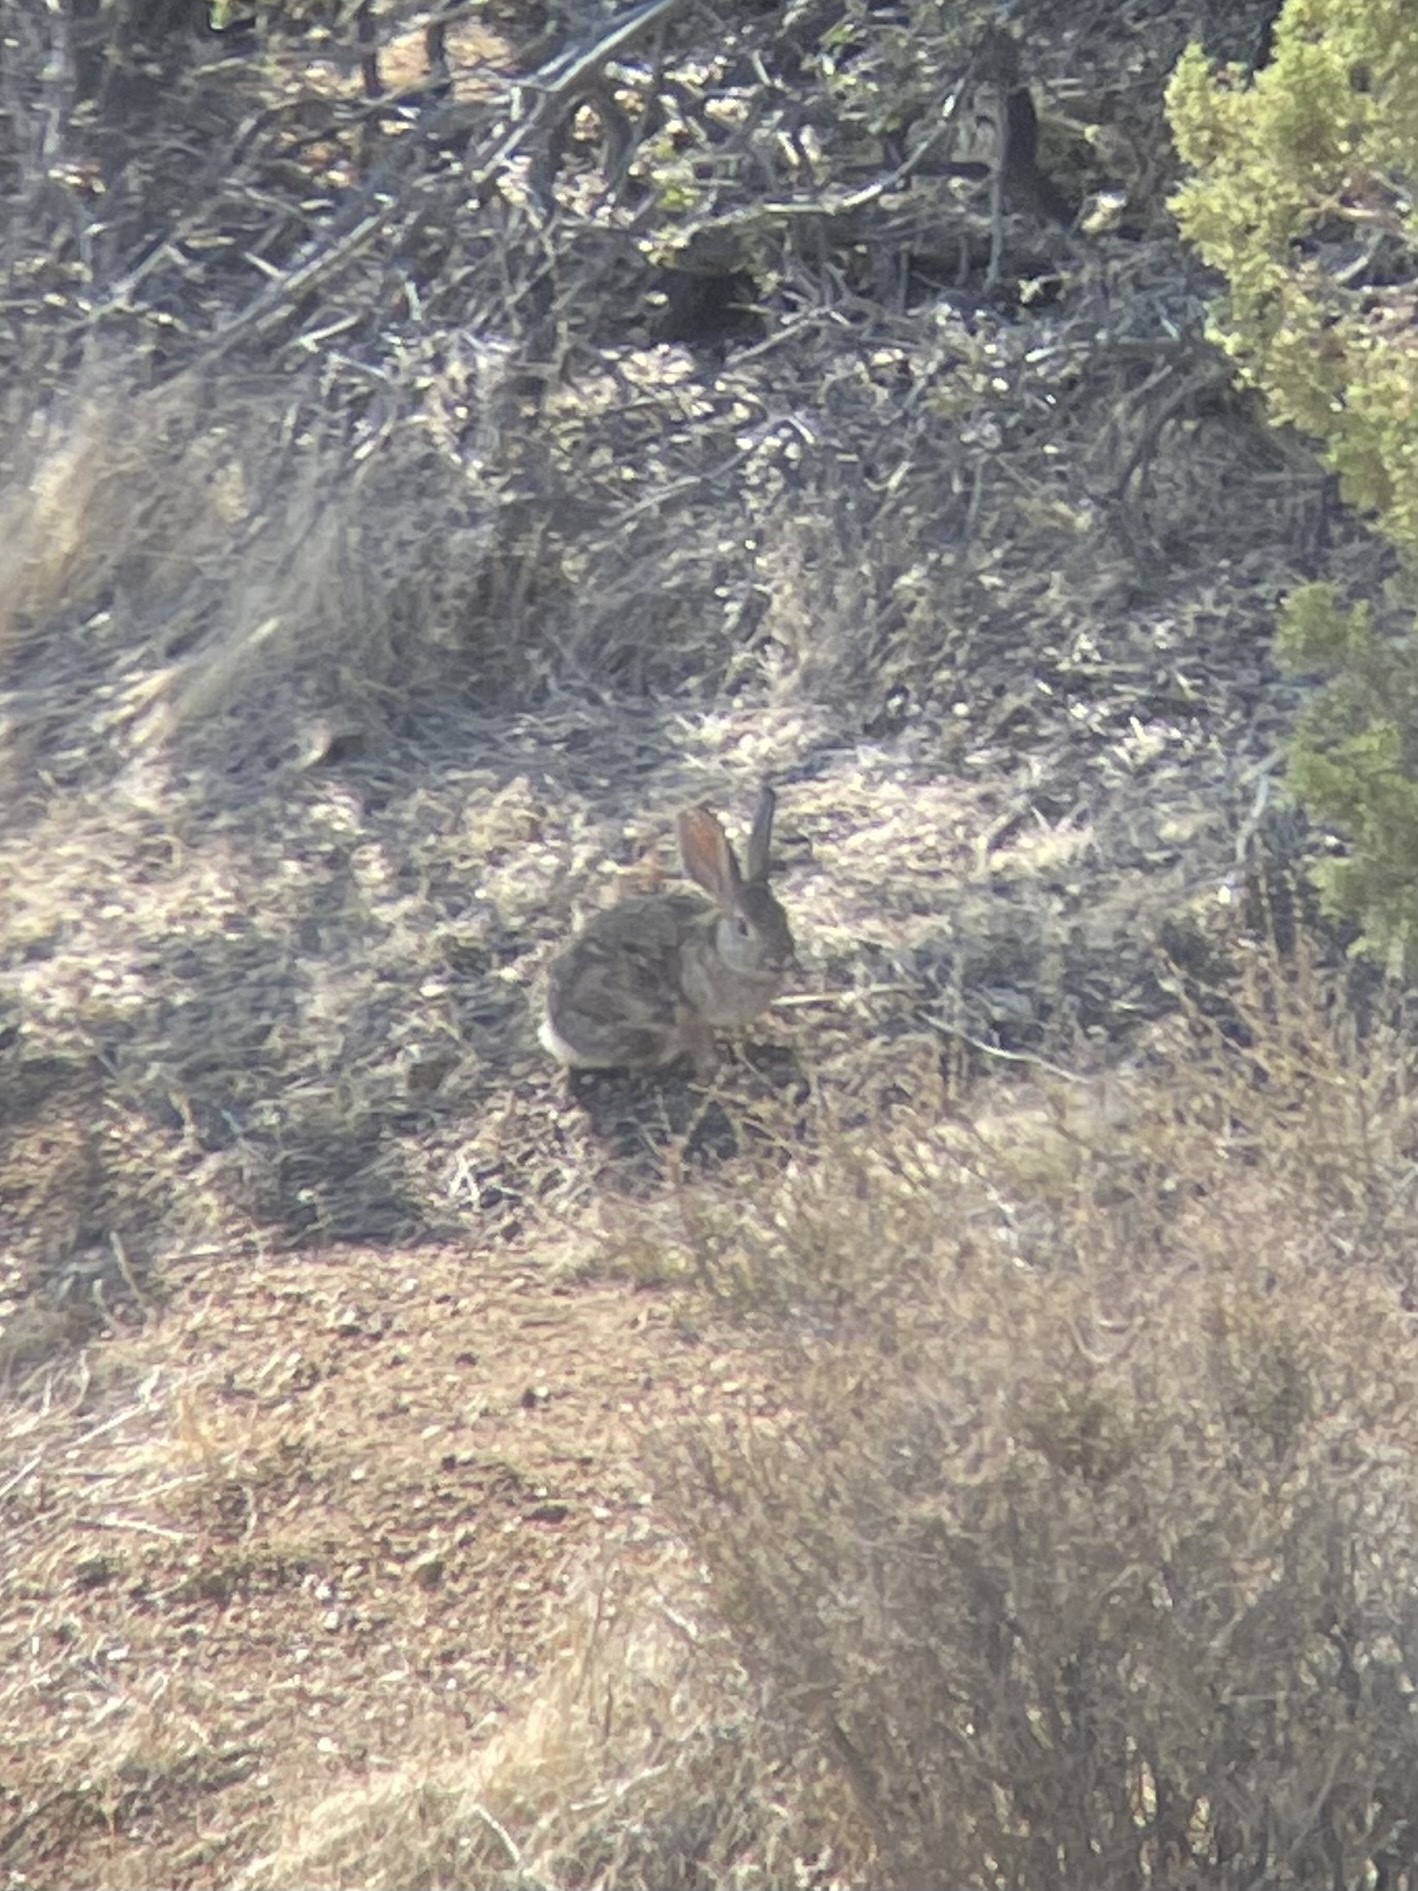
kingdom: Animalia
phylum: Chordata
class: Mammalia
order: Lagomorpha
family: Leporidae
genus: Sylvilagus
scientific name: Sylvilagus audubonii
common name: Desert cottontail
